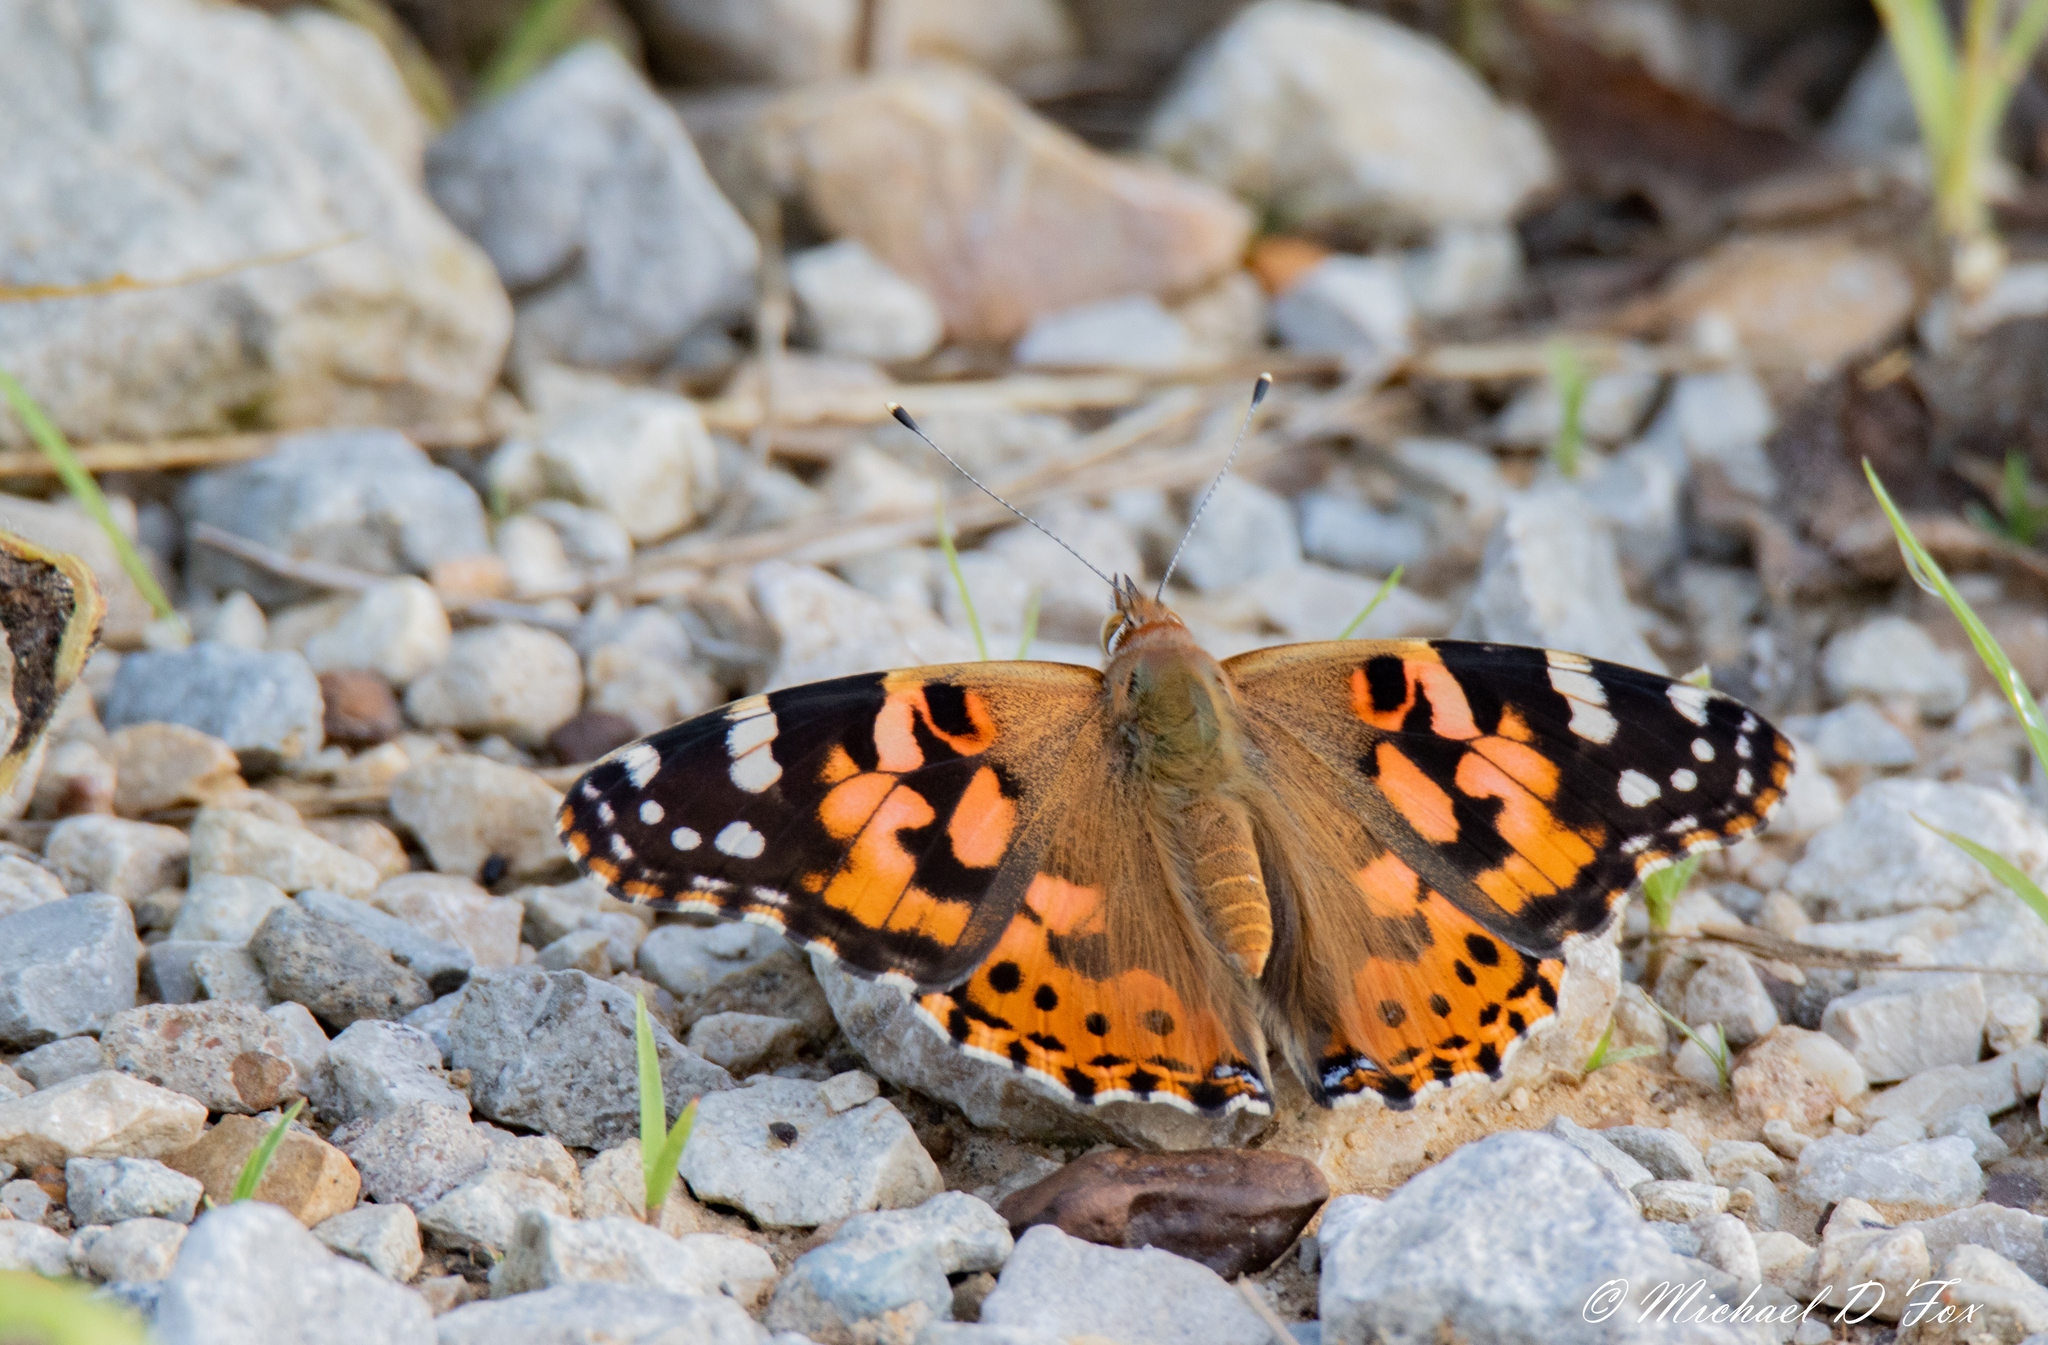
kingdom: Animalia
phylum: Arthropoda
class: Insecta
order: Lepidoptera
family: Nymphalidae
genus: Vanessa
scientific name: Vanessa cardui
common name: Painted lady
